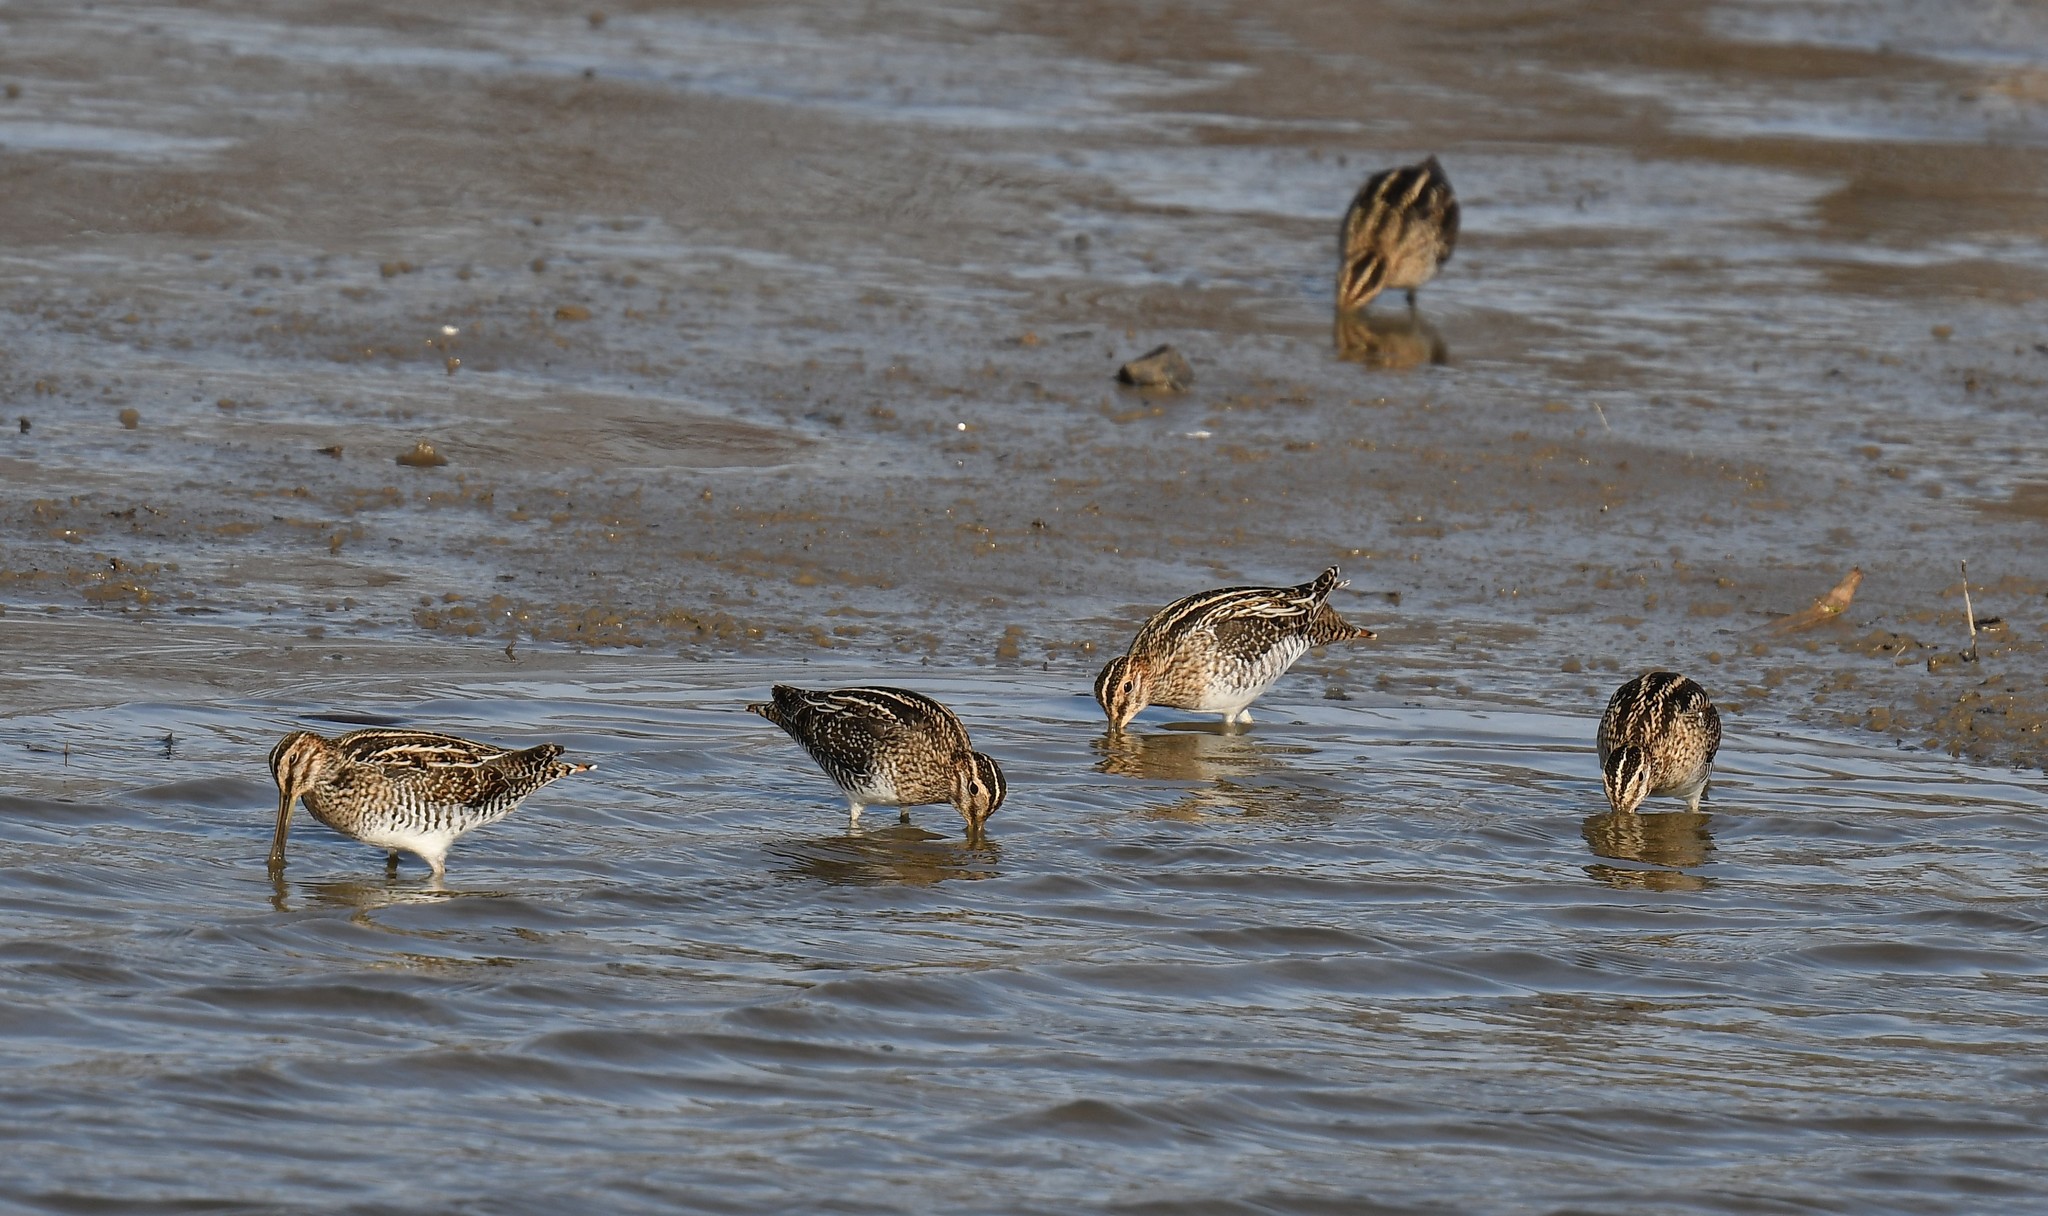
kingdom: Animalia
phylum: Chordata
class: Aves
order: Charadriiformes
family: Scolopacidae
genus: Gallinago
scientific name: Gallinago delicata
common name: Wilson's snipe
